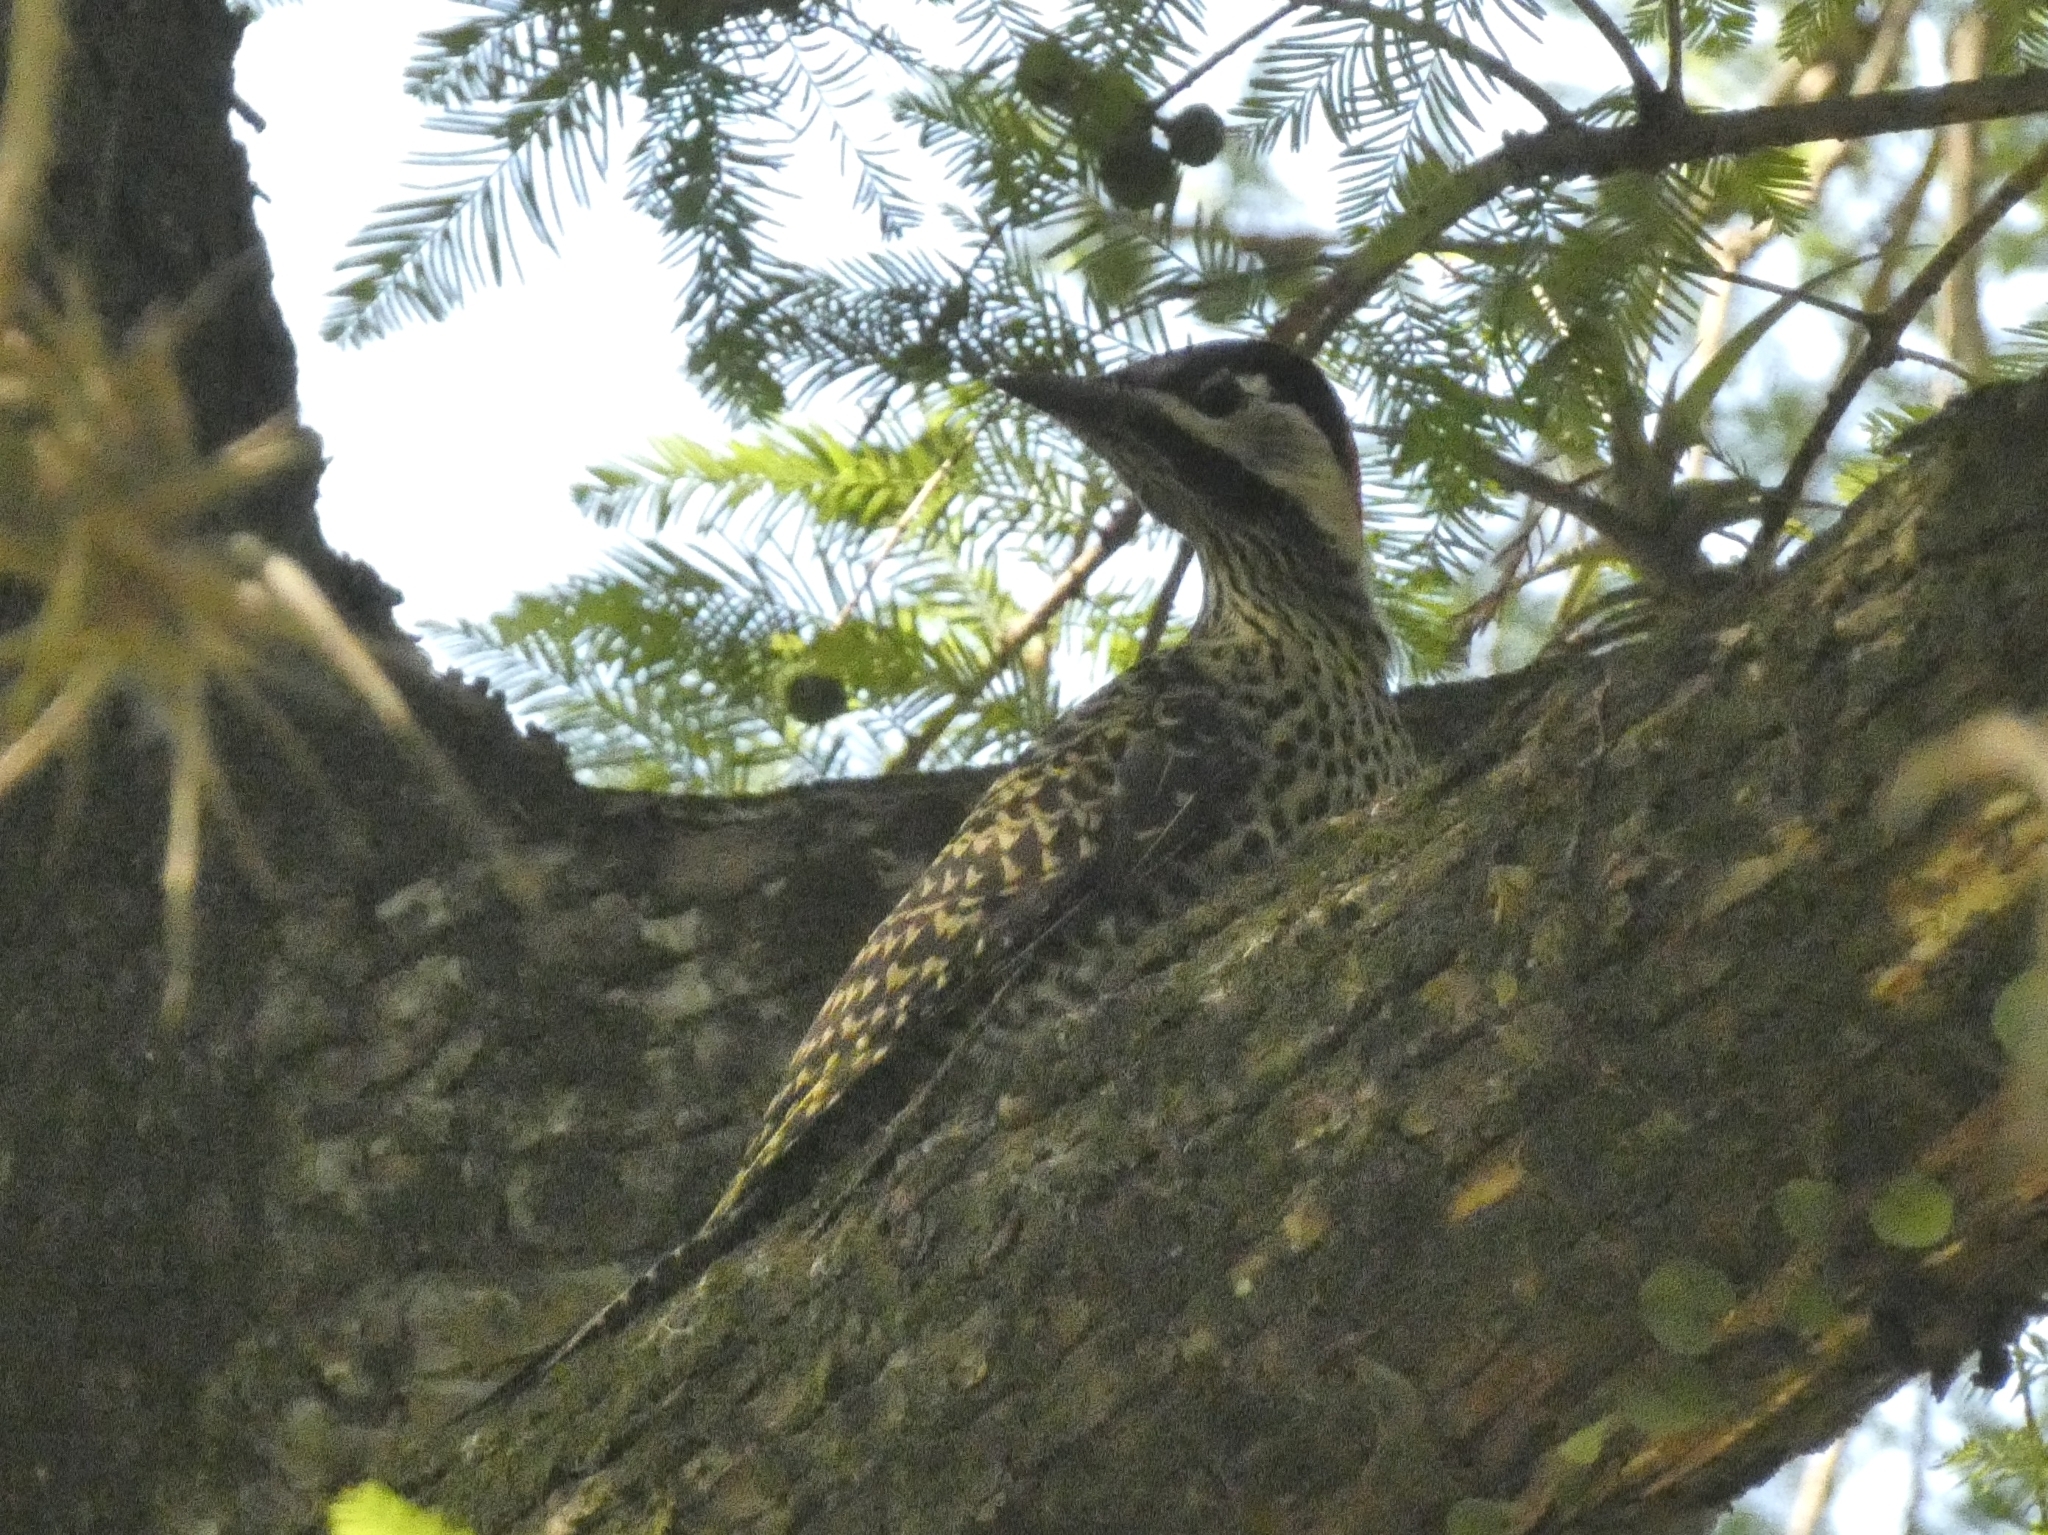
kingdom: Animalia
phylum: Chordata
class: Aves
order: Piciformes
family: Picidae
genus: Colaptes
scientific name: Colaptes melanochloros
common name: Green-barred woodpecker
